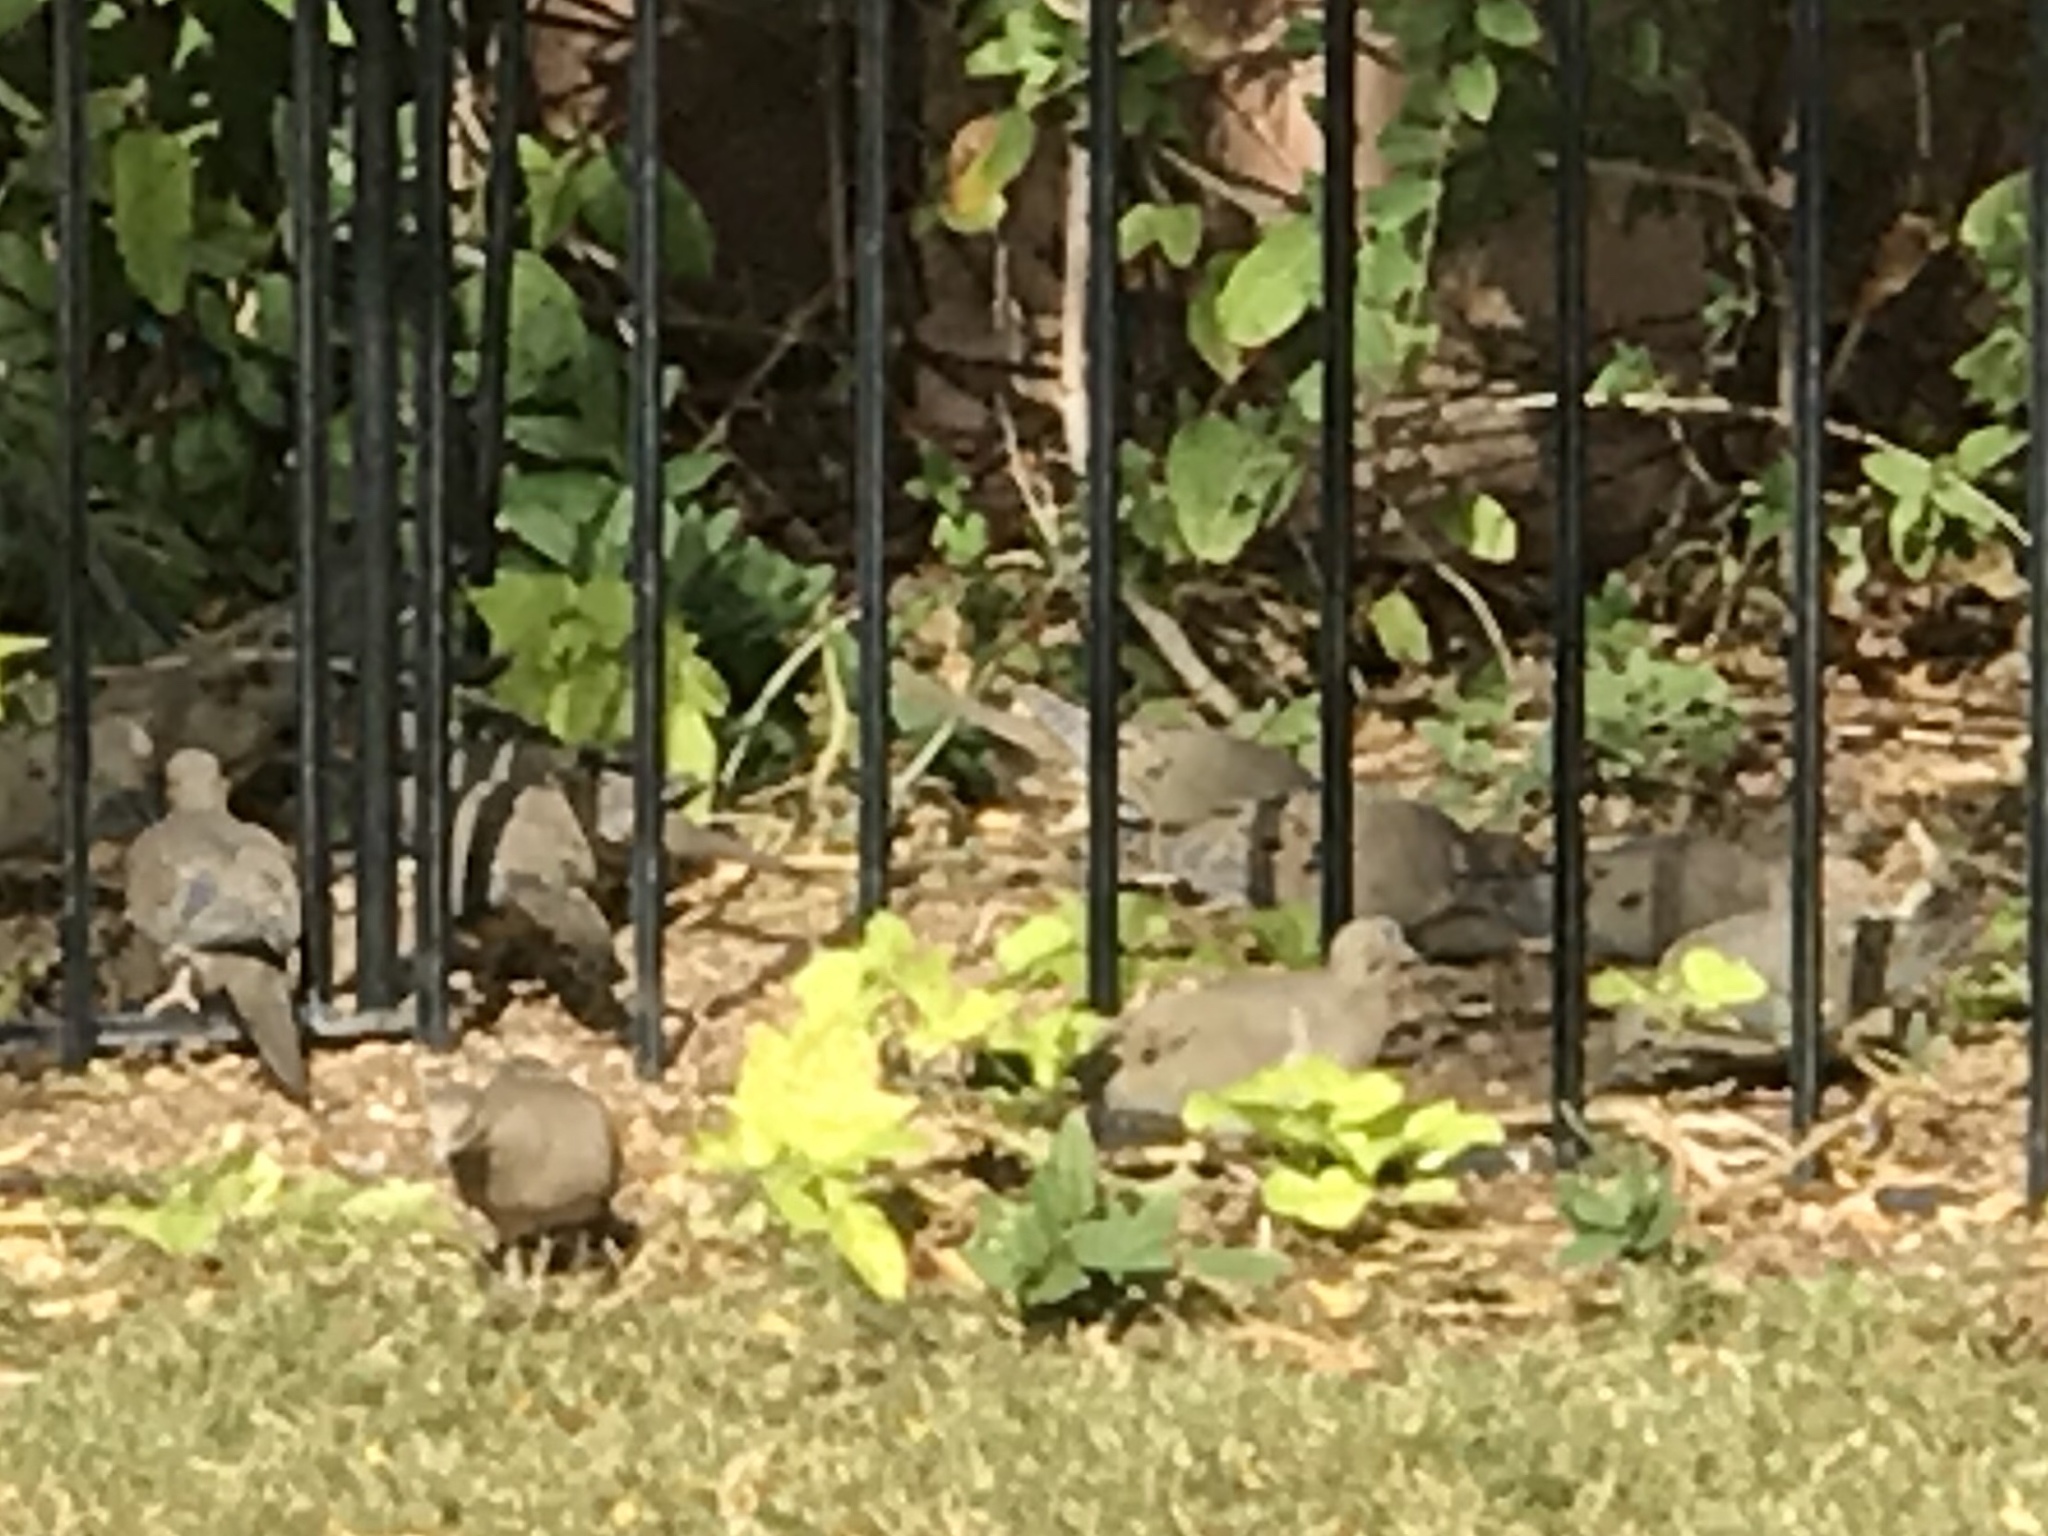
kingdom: Animalia
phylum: Chordata
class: Aves
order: Columbiformes
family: Columbidae
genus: Zenaida
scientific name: Zenaida macroura
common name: Mourning dove
